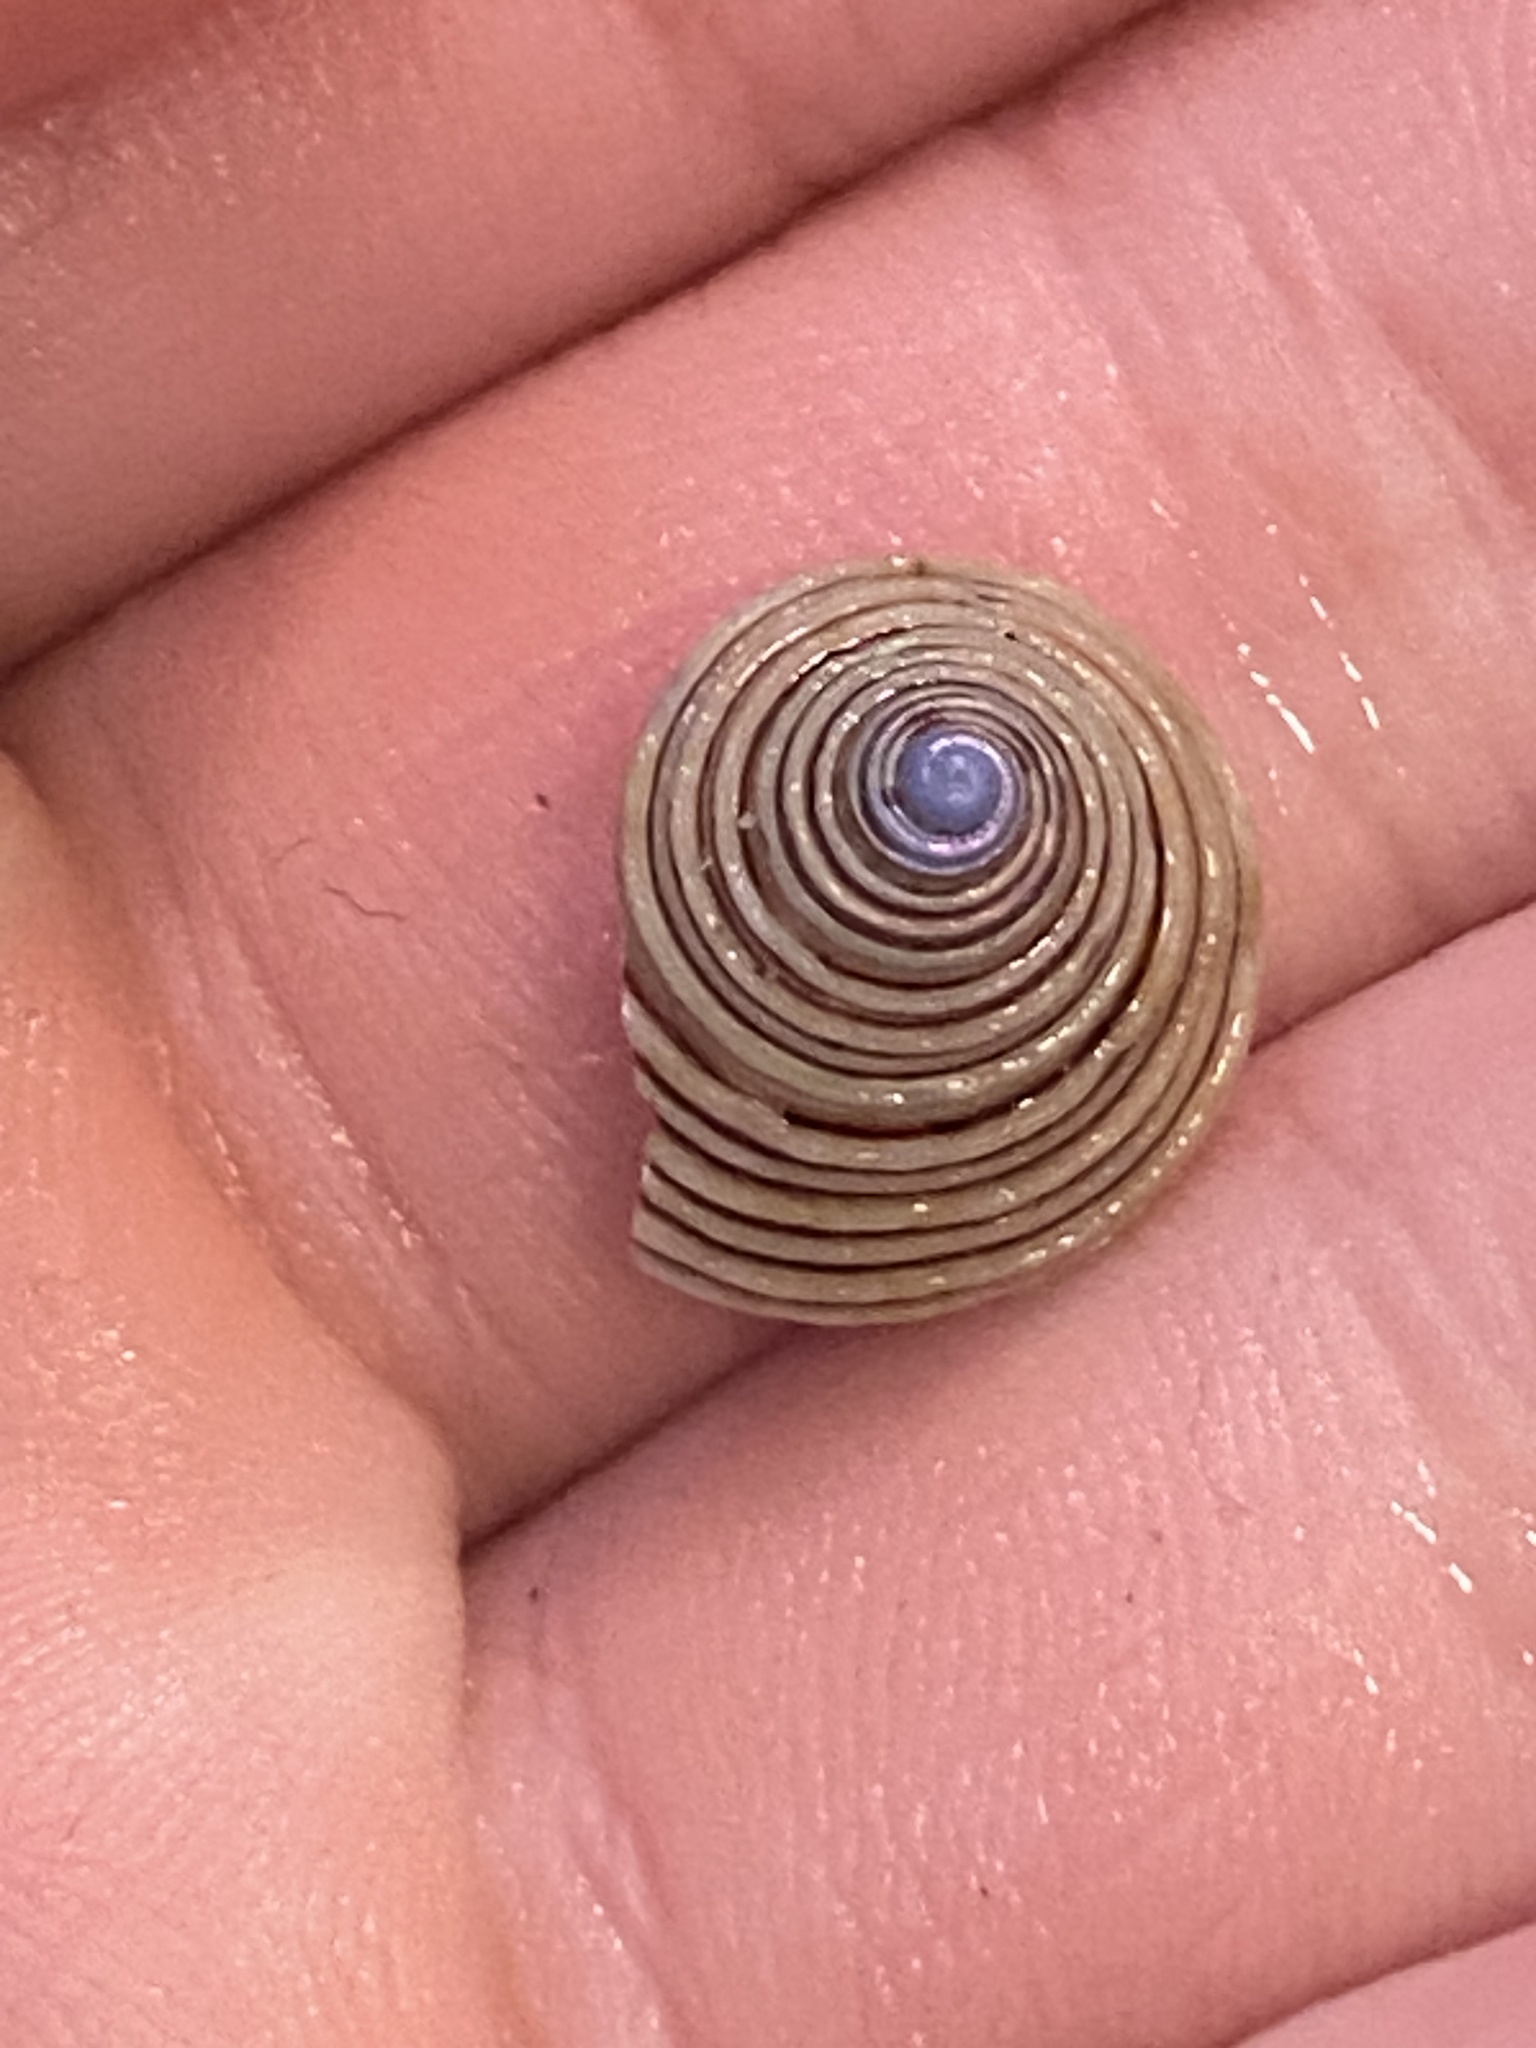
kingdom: Animalia
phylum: Mollusca
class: Gastropoda
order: Trochida
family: Calliostomatidae
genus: Calliostoma
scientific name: Calliostoma canaliculatum
